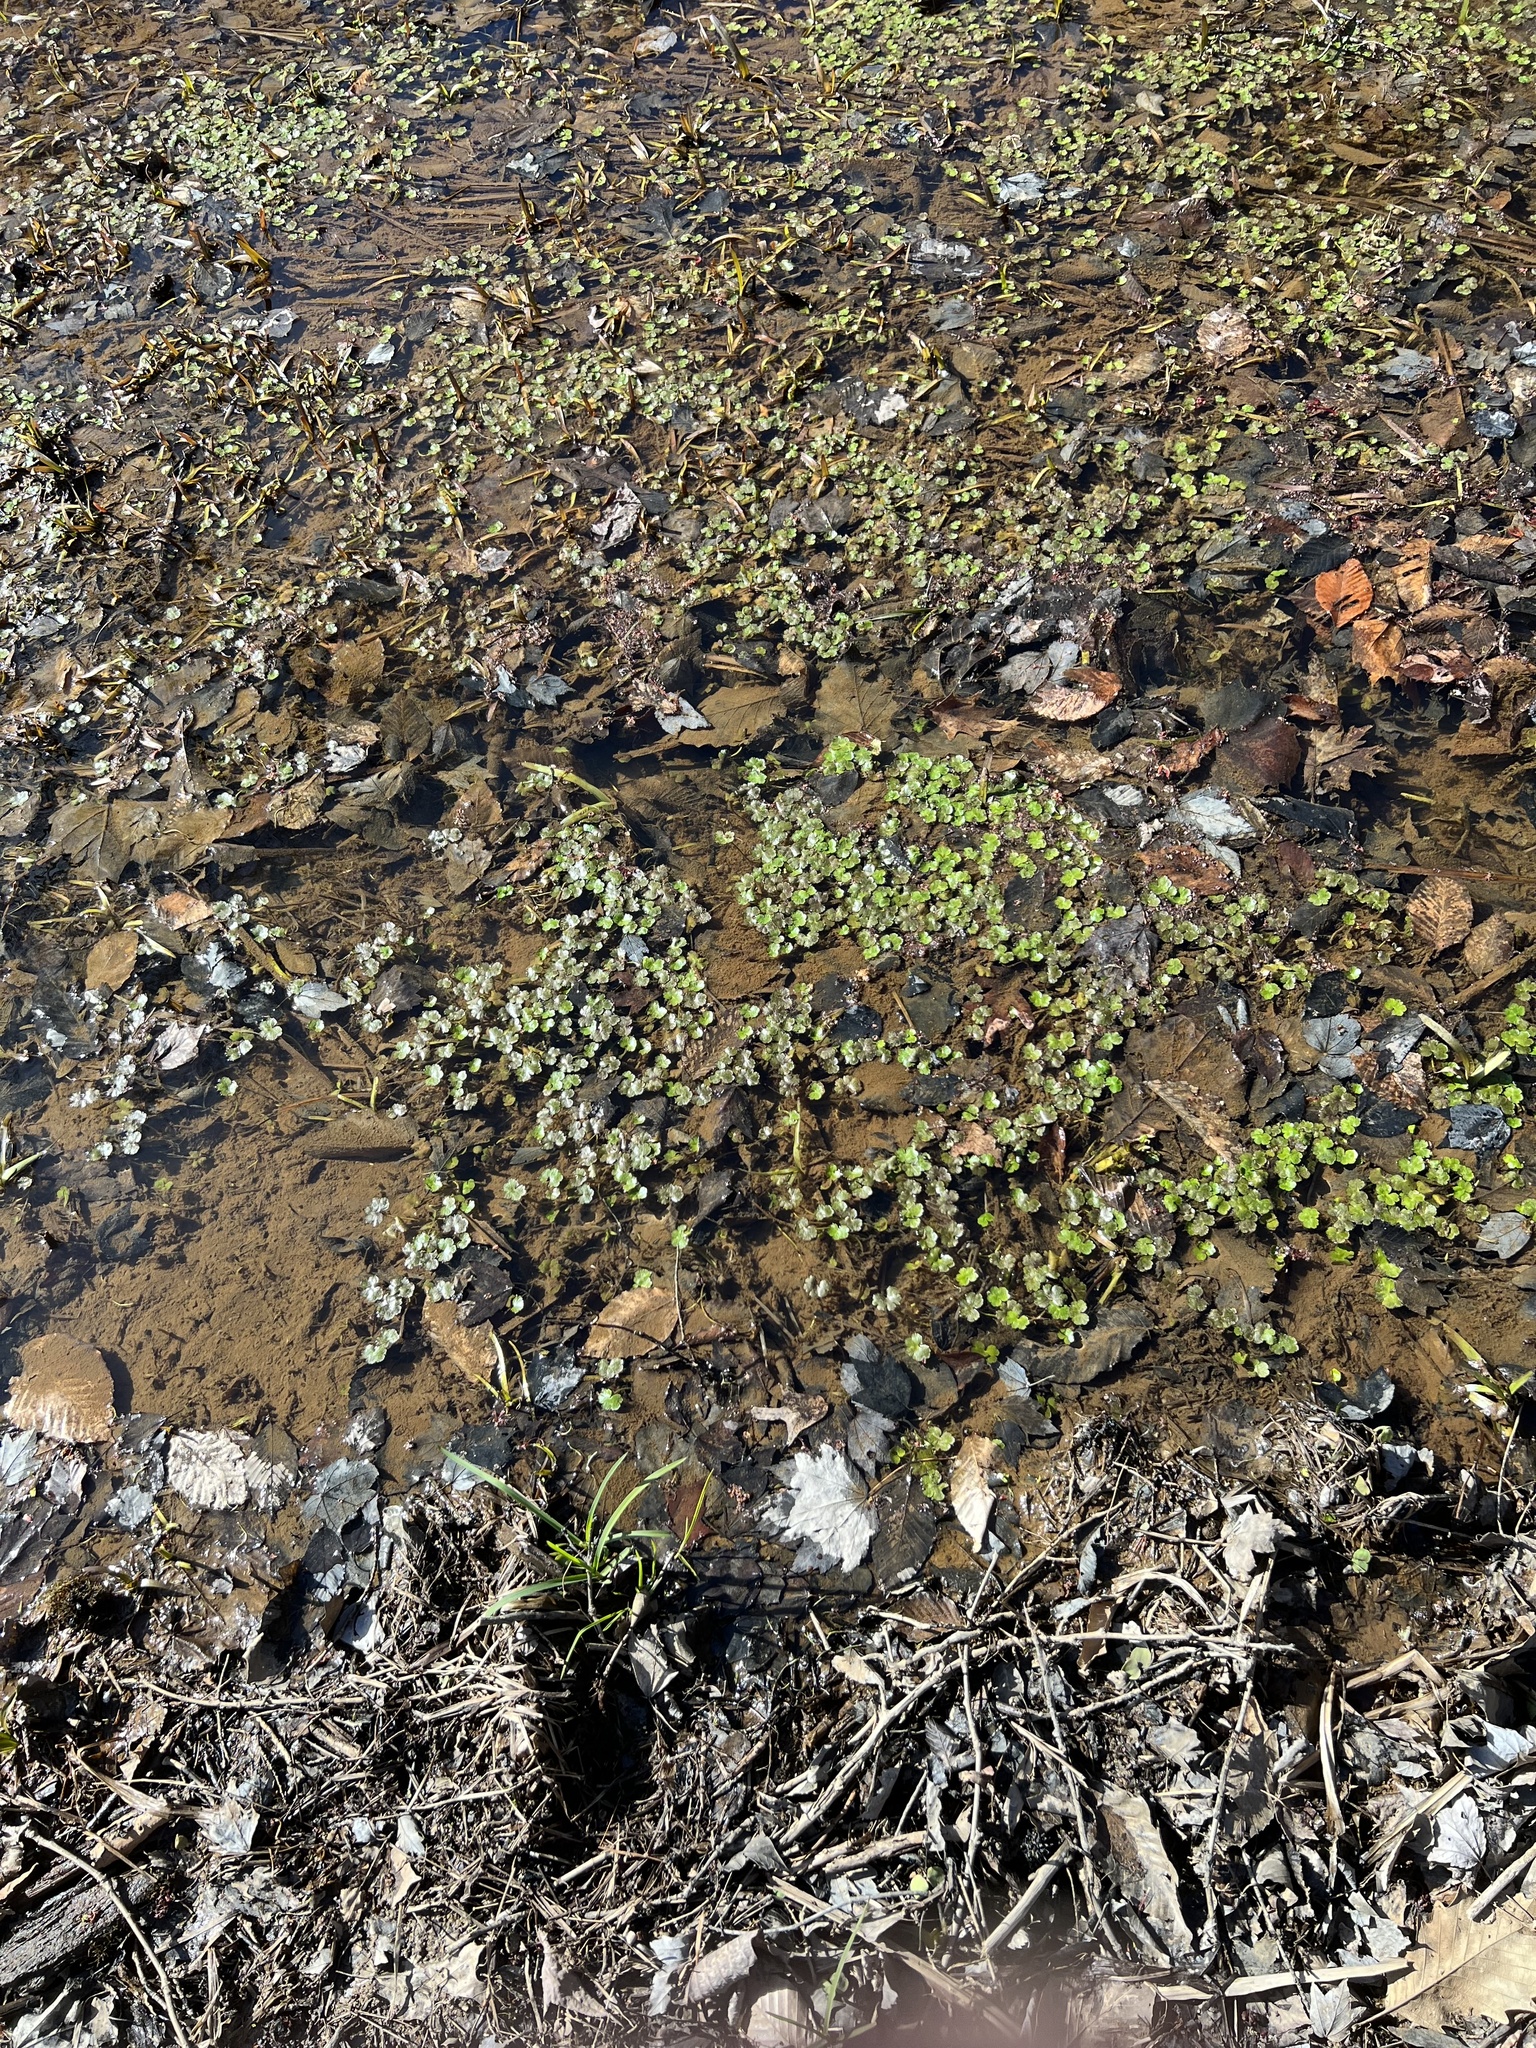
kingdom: Plantae
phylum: Tracheophyta
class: Magnoliopsida
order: Apiales
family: Araliaceae
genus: Hydrocotyle
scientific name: Hydrocotyle ranunculoides
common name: Floating pennywort
